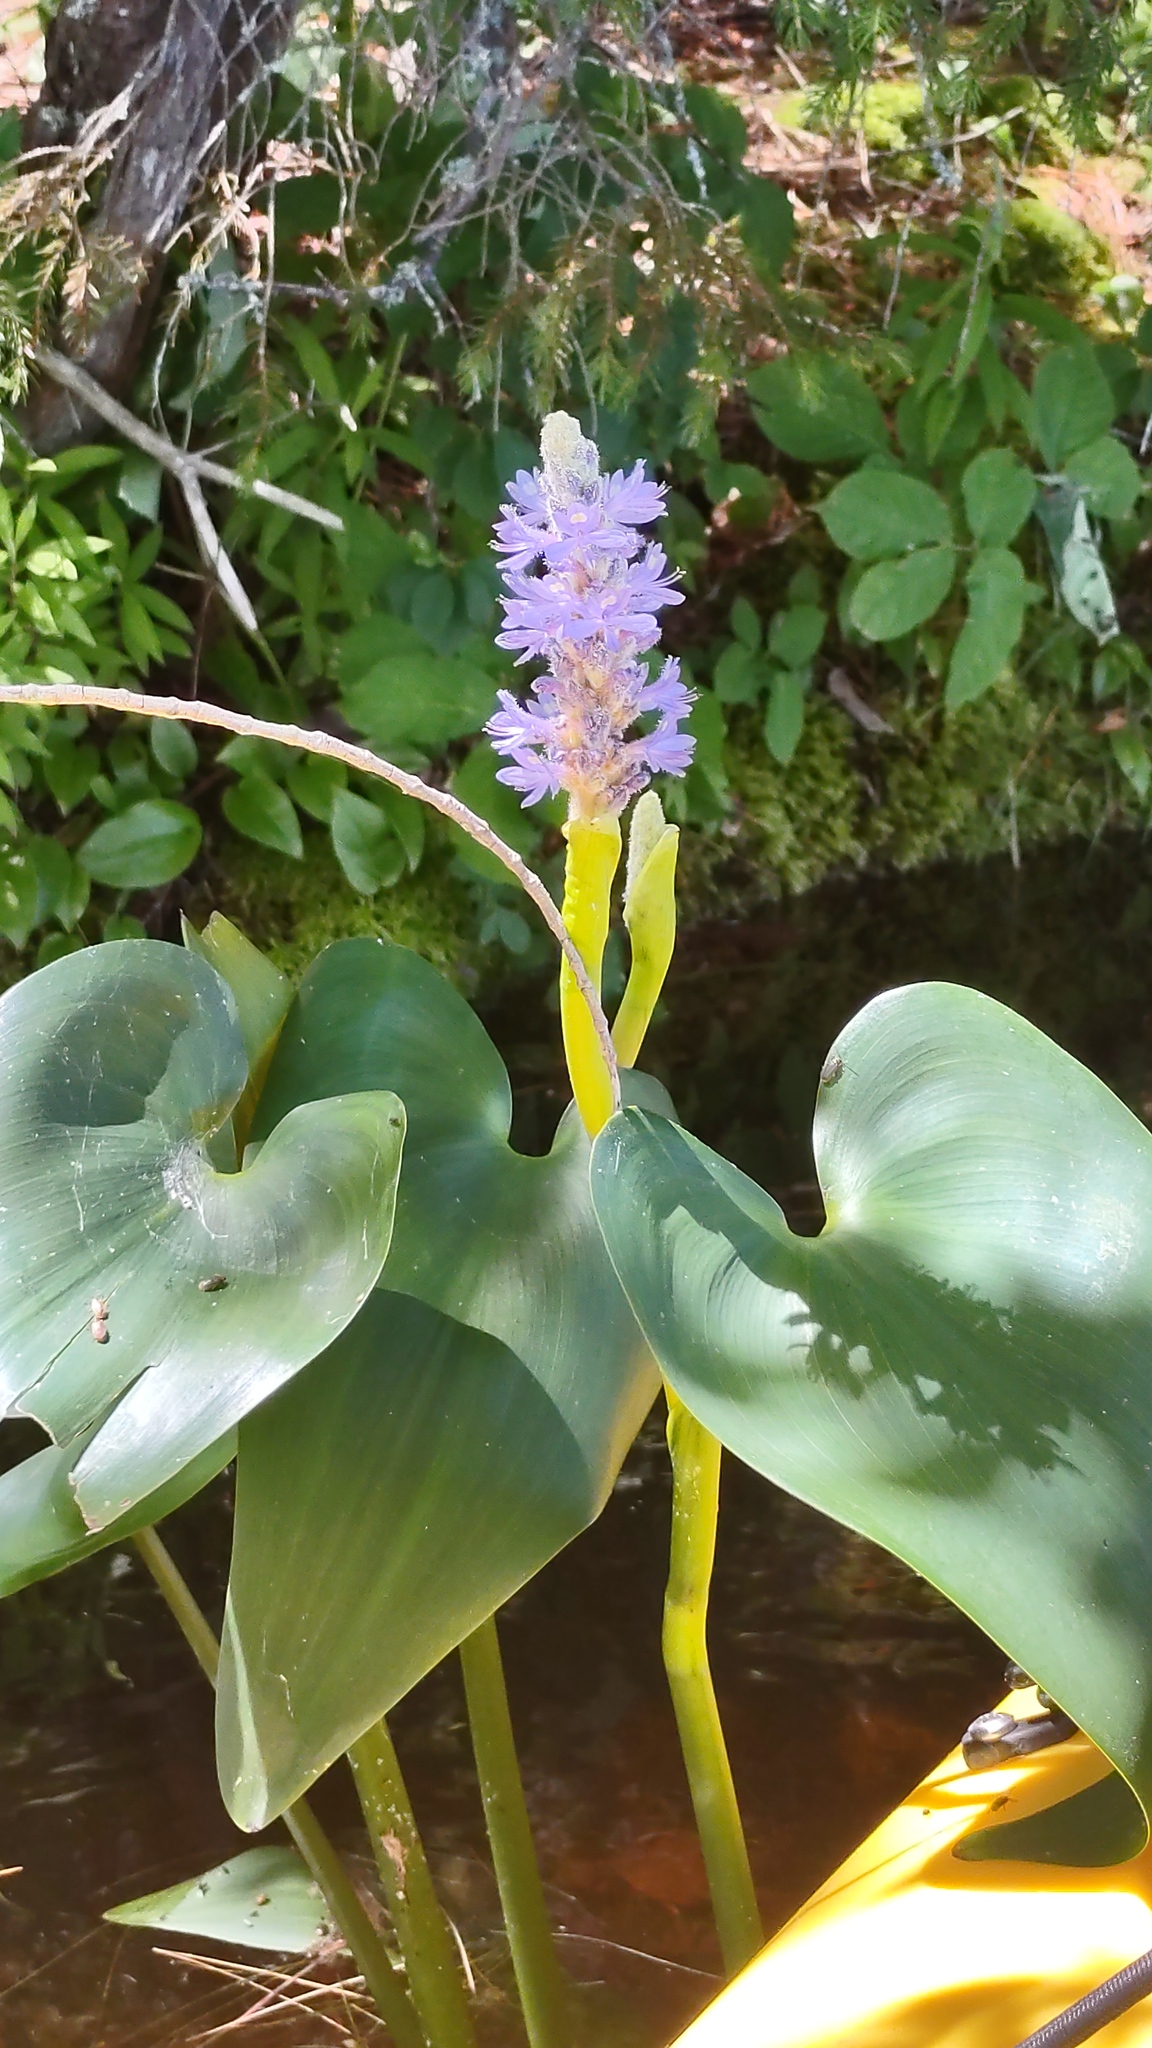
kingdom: Plantae
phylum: Tracheophyta
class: Liliopsida
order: Commelinales
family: Pontederiaceae
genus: Pontederia
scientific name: Pontederia cordata
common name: Pickerelweed
